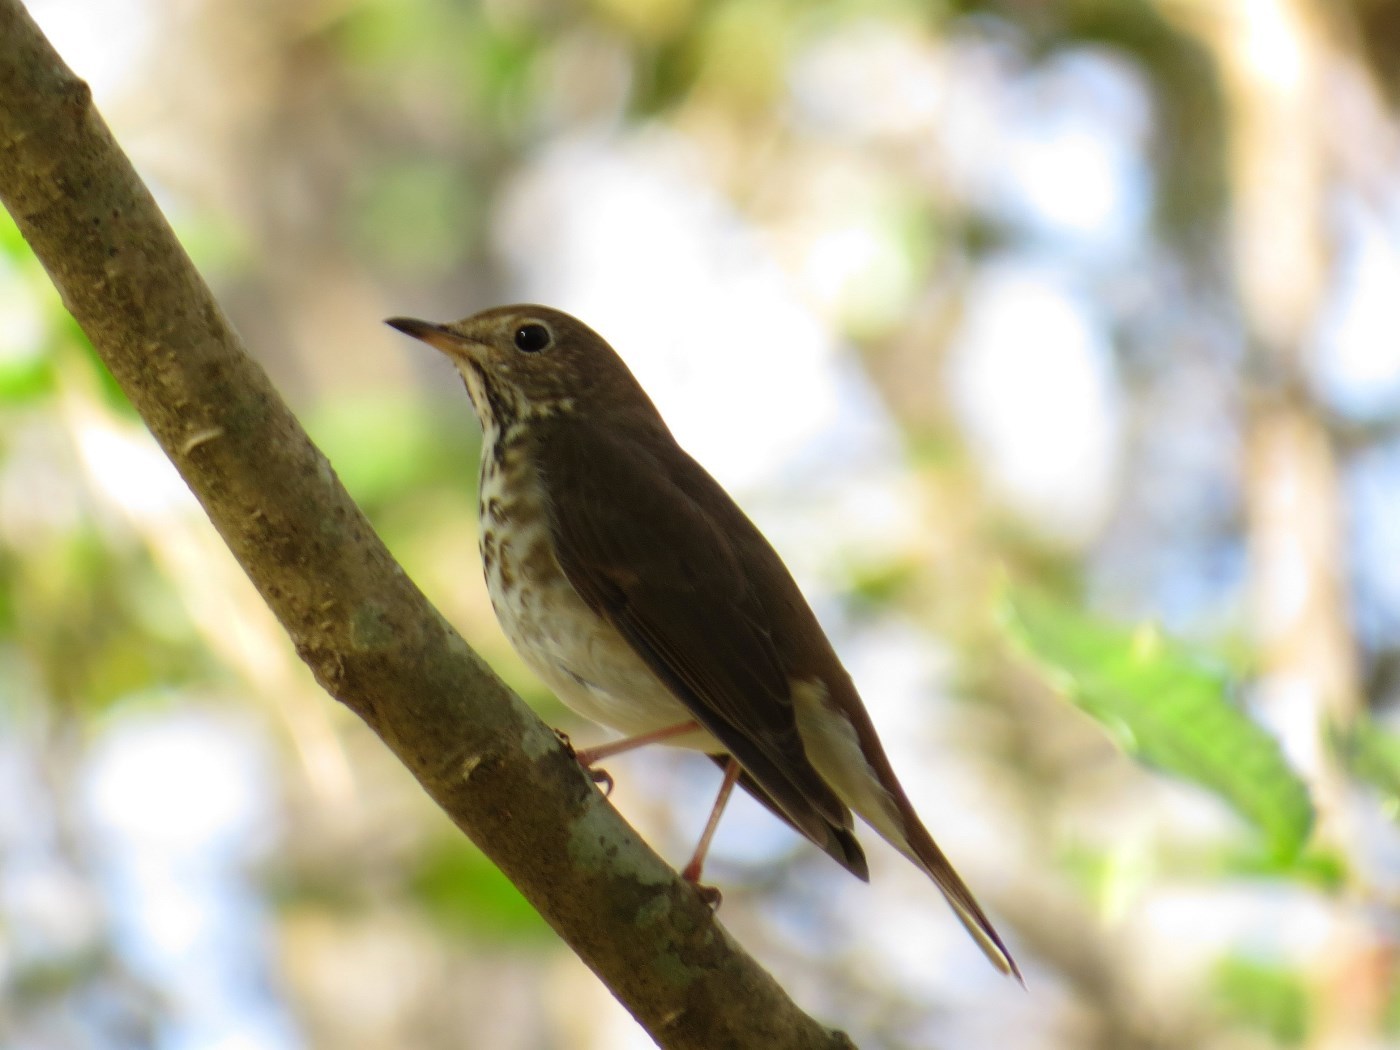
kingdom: Animalia
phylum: Chordata
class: Aves
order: Passeriformes
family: Turdidae
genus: Catharus
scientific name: Catharus guttatus
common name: Hermit thrush
